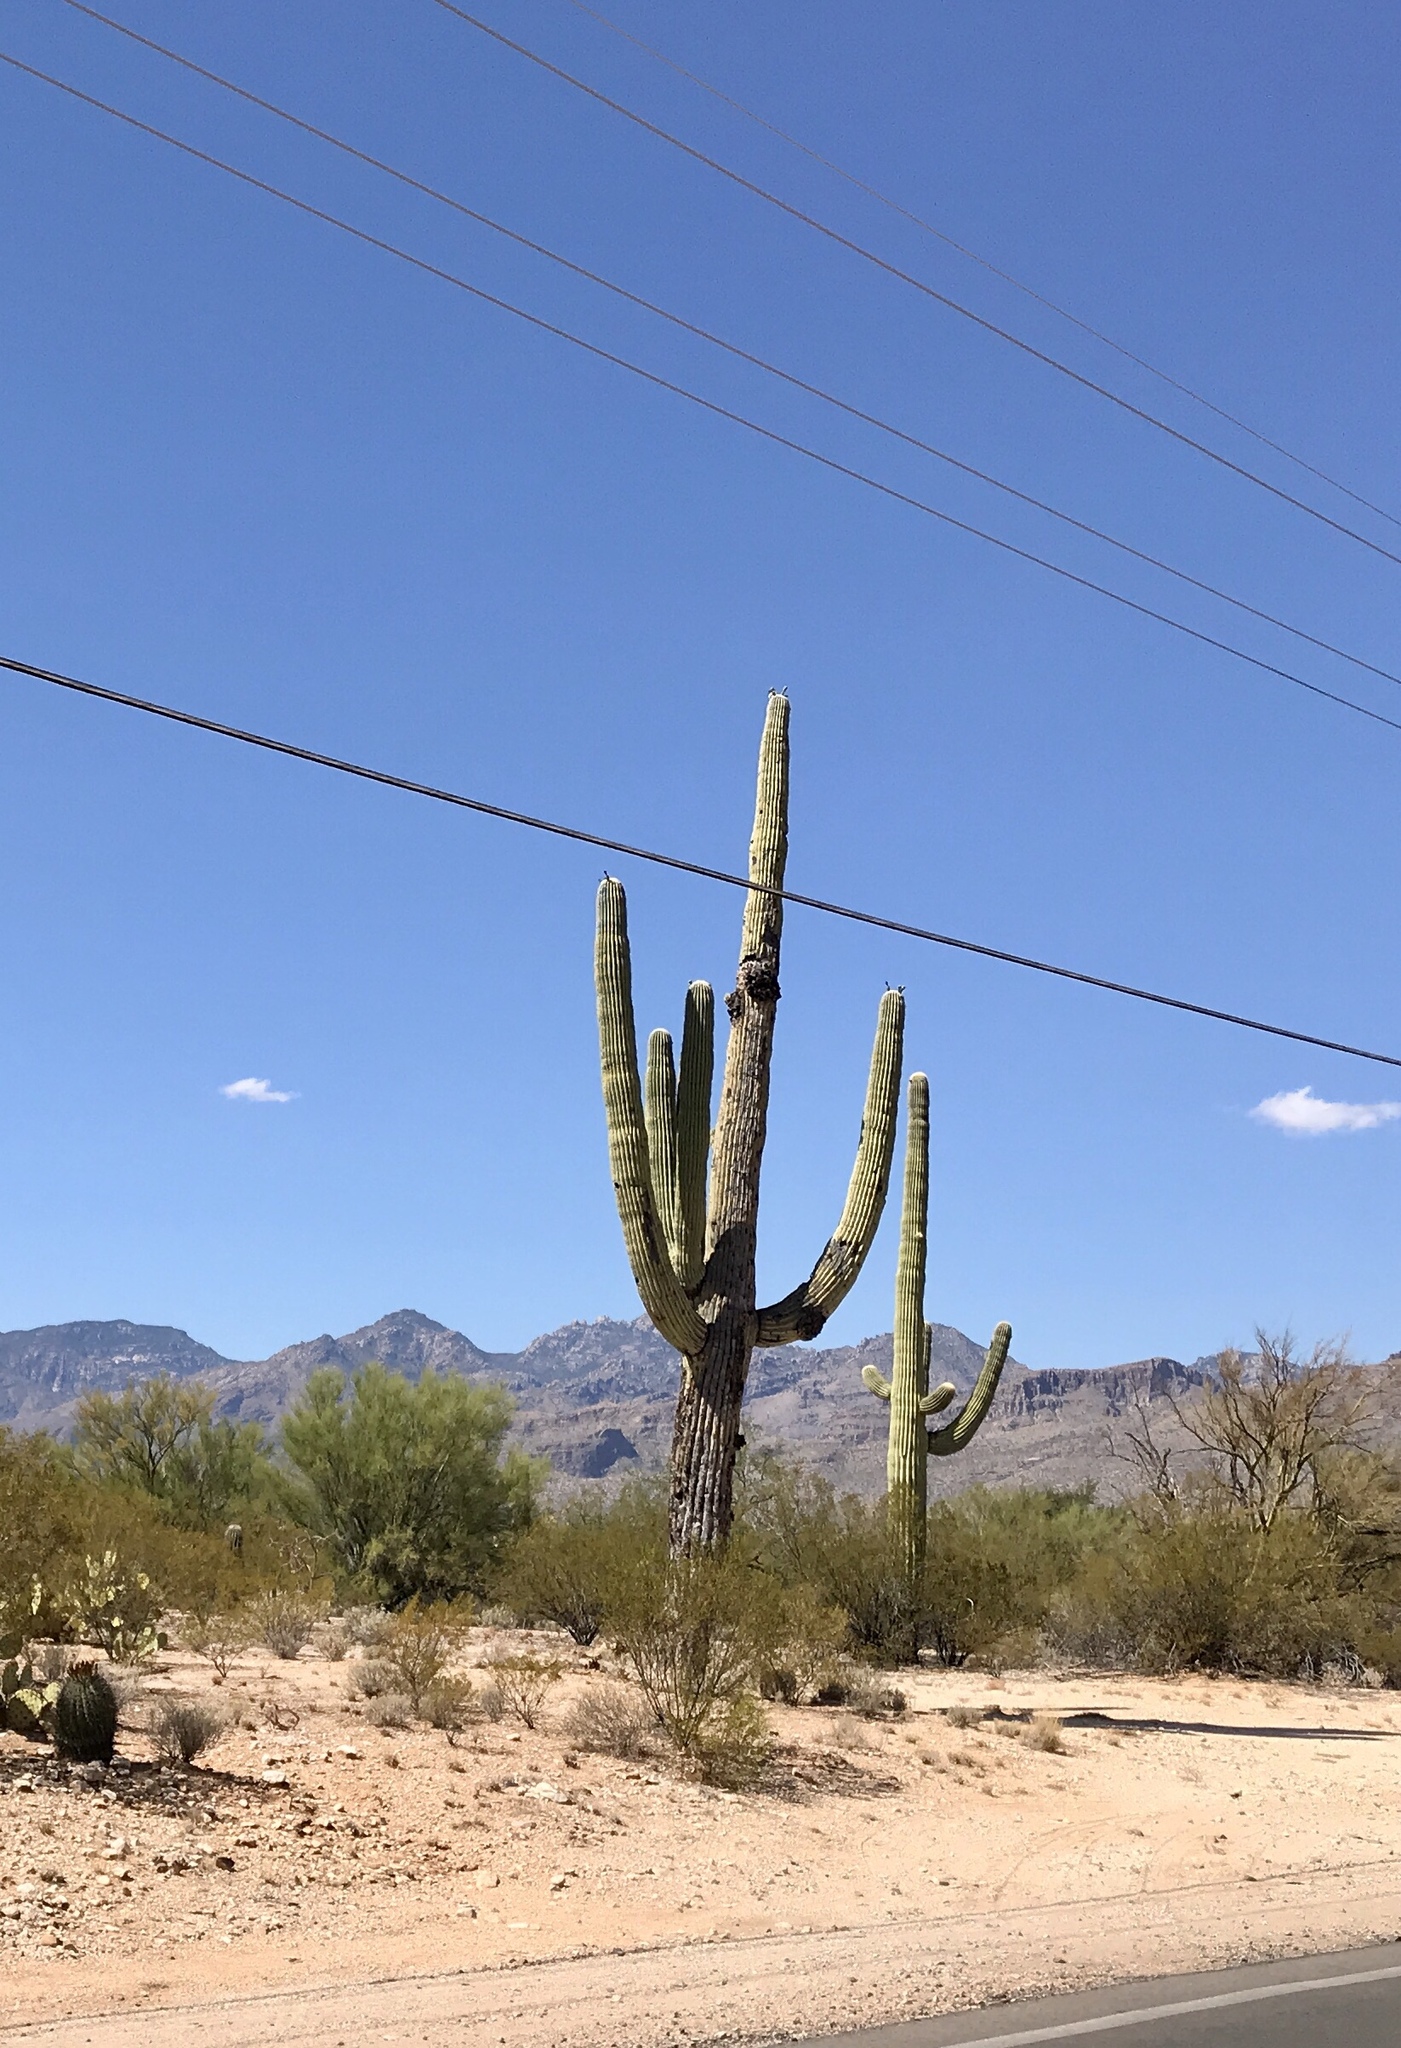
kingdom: Plantae
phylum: Tracheophyta
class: Magnoliopsida
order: Caryophyllales
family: Cactaceae
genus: Carnegiea
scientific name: Carnegiea gigantea
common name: Saguaro
